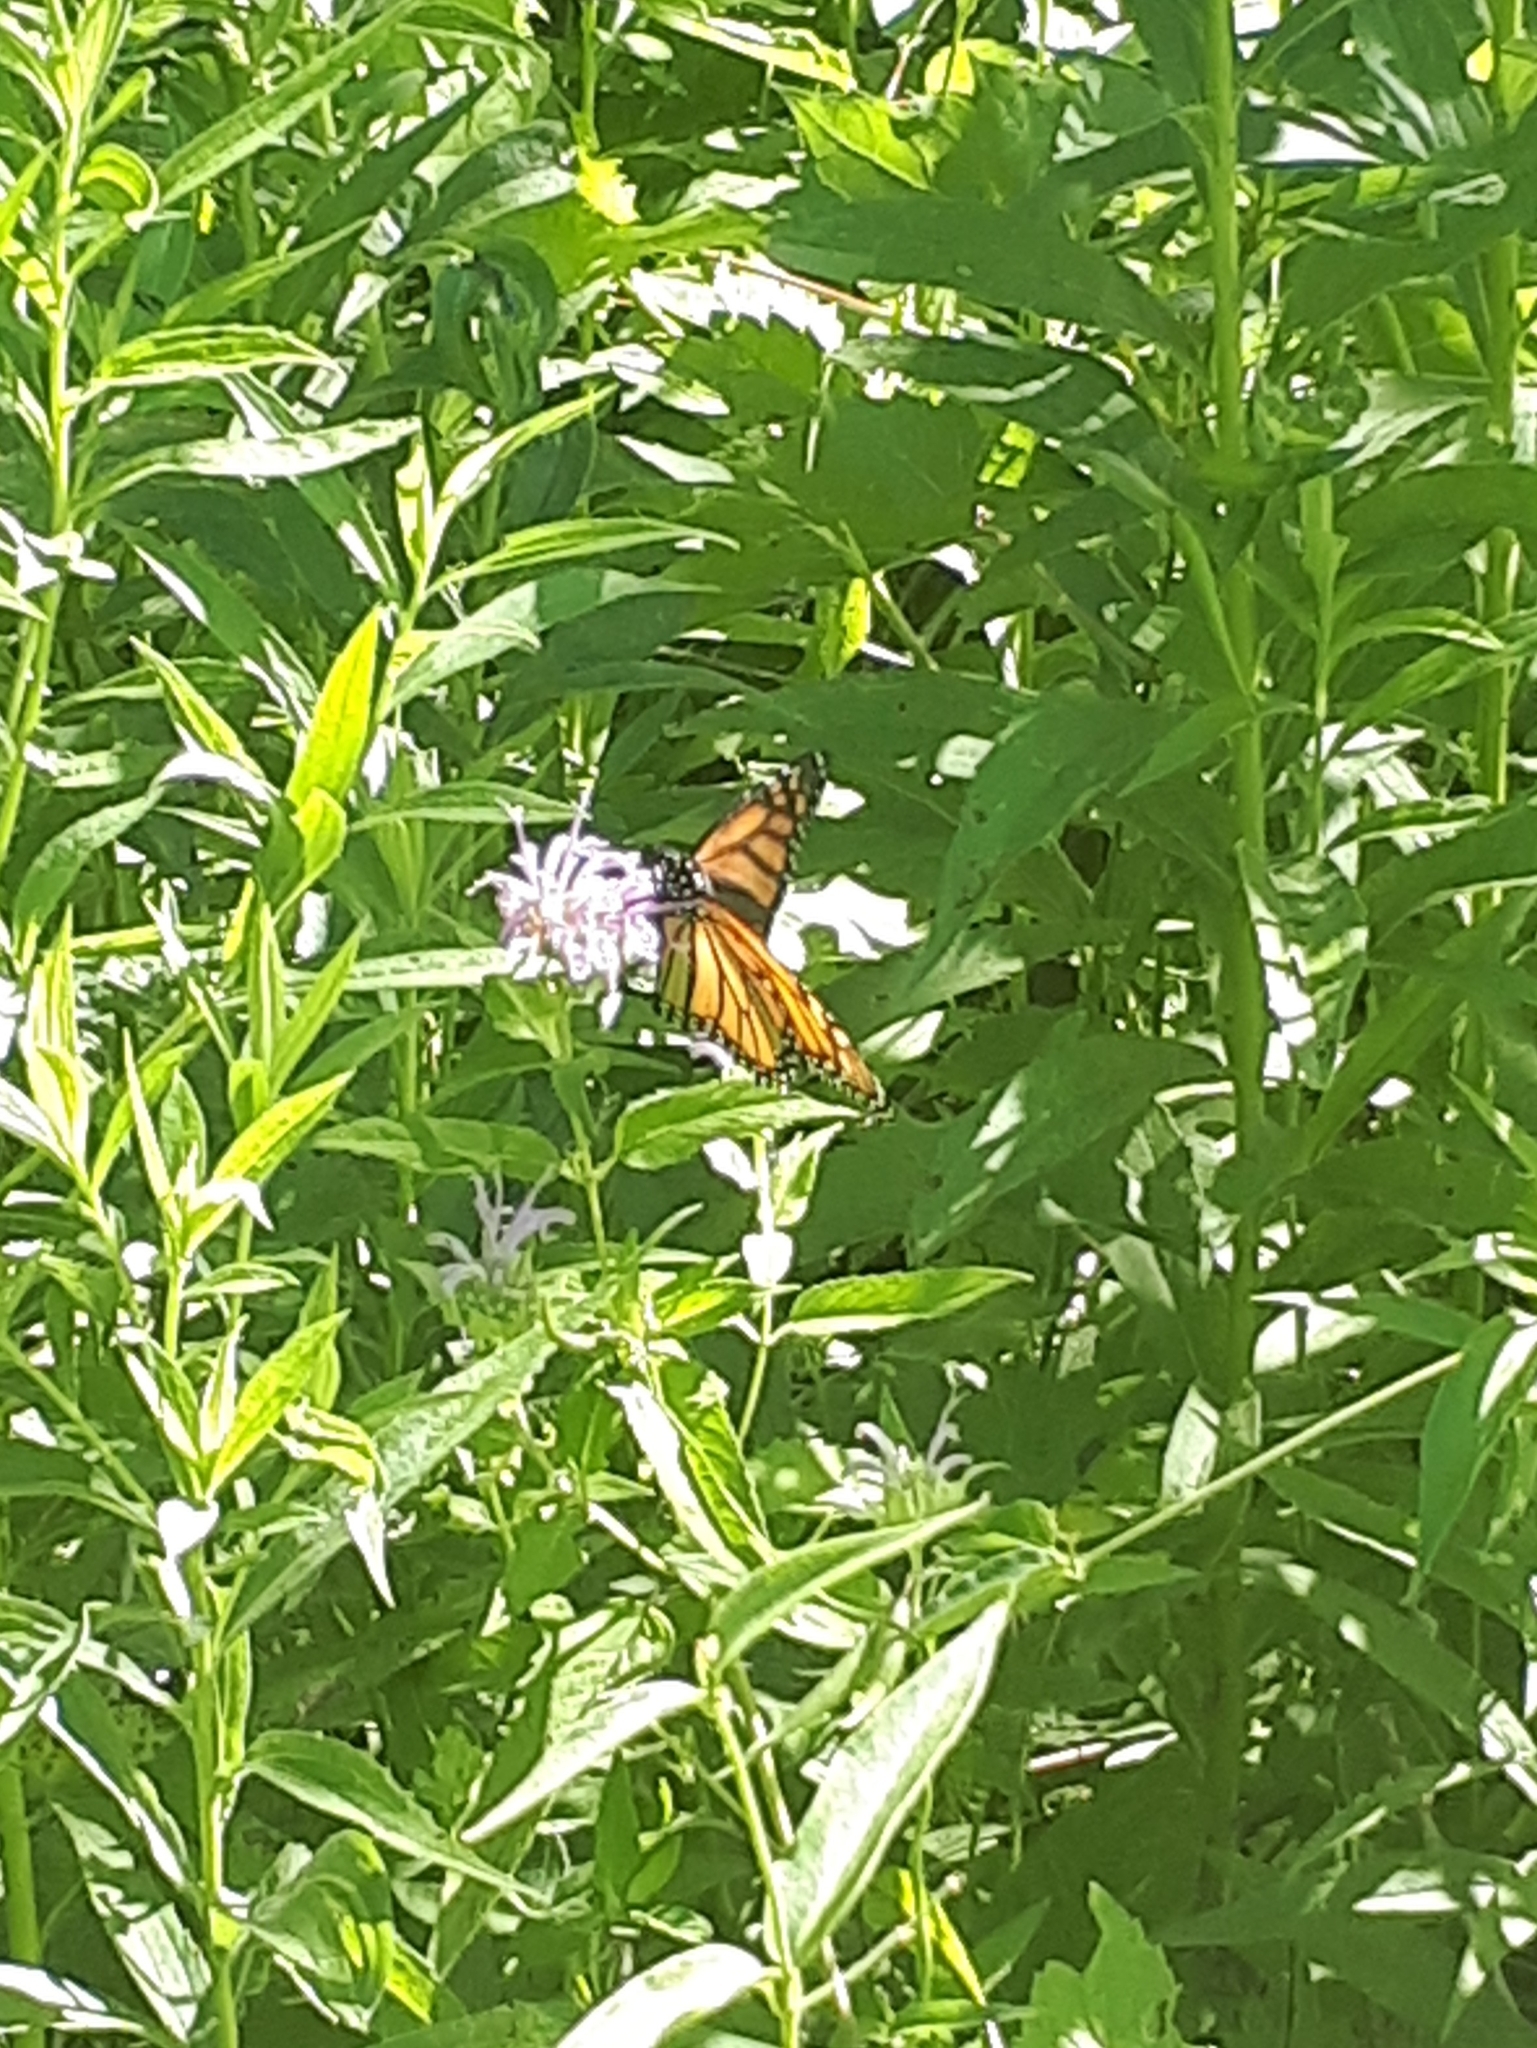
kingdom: Animalia
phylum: Arthropoda
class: Insecta
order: Lepidoptera
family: Nymphalidae
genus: Danaus
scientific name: Danaus plexippus
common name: Monarch
